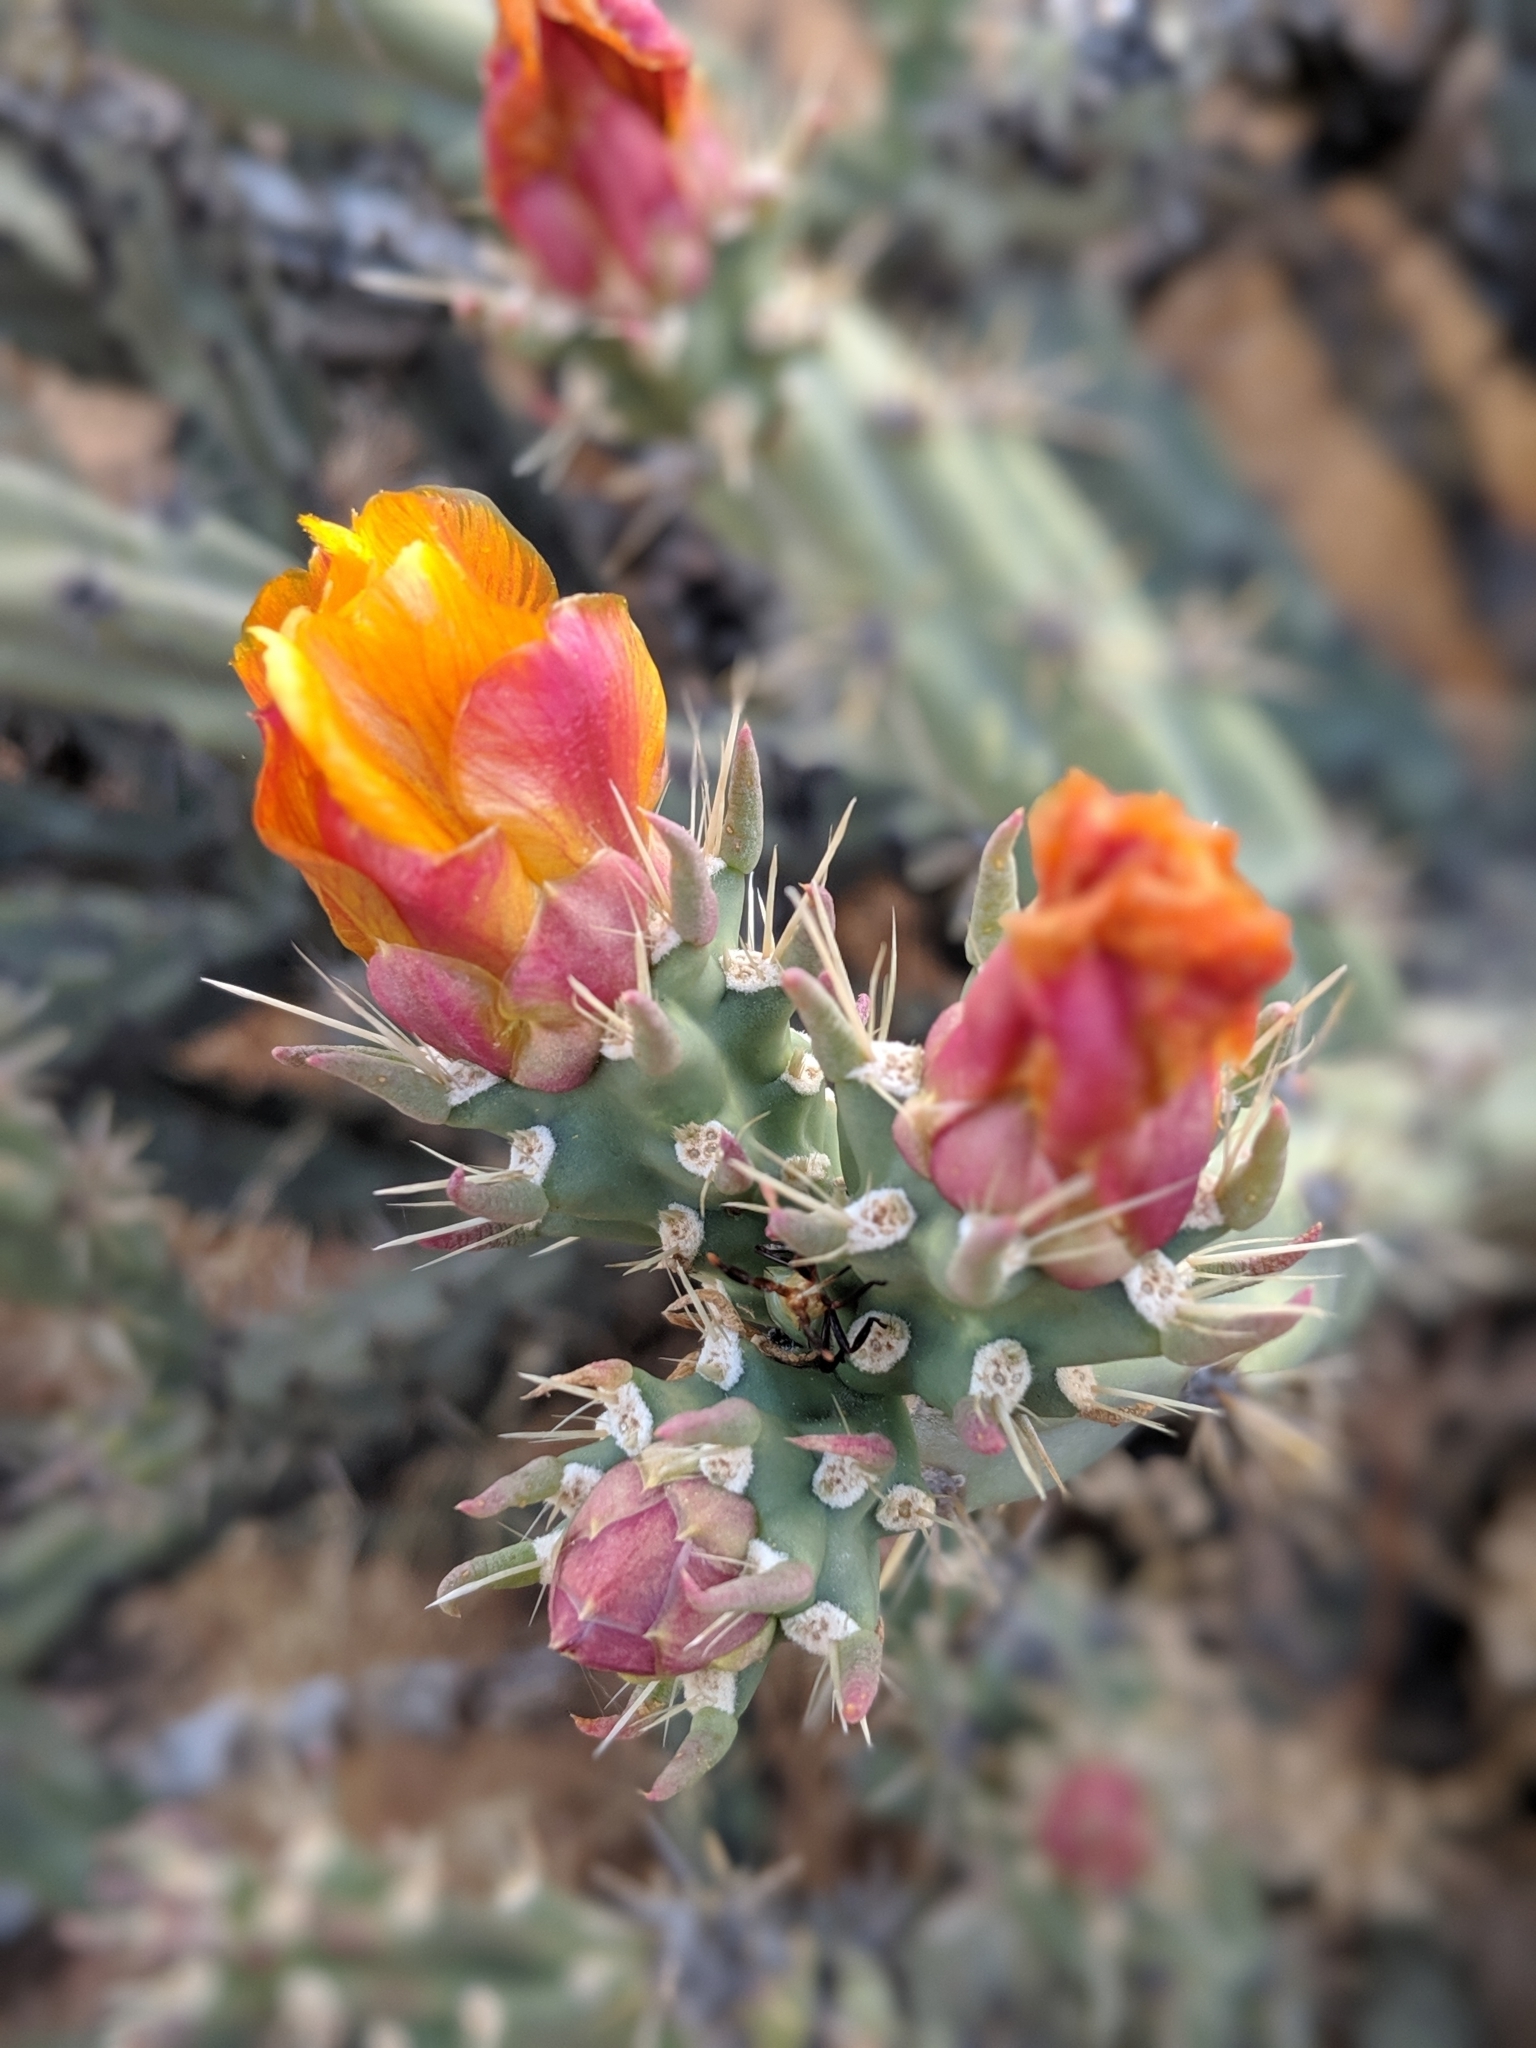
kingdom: Plantae
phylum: Tracheophyta
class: Magnoliopsida
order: Caryophyllales
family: Cactaceae
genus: Cylindropuntia
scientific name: Cylindropuntia acanthocarpa
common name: Buckhorn cholla
